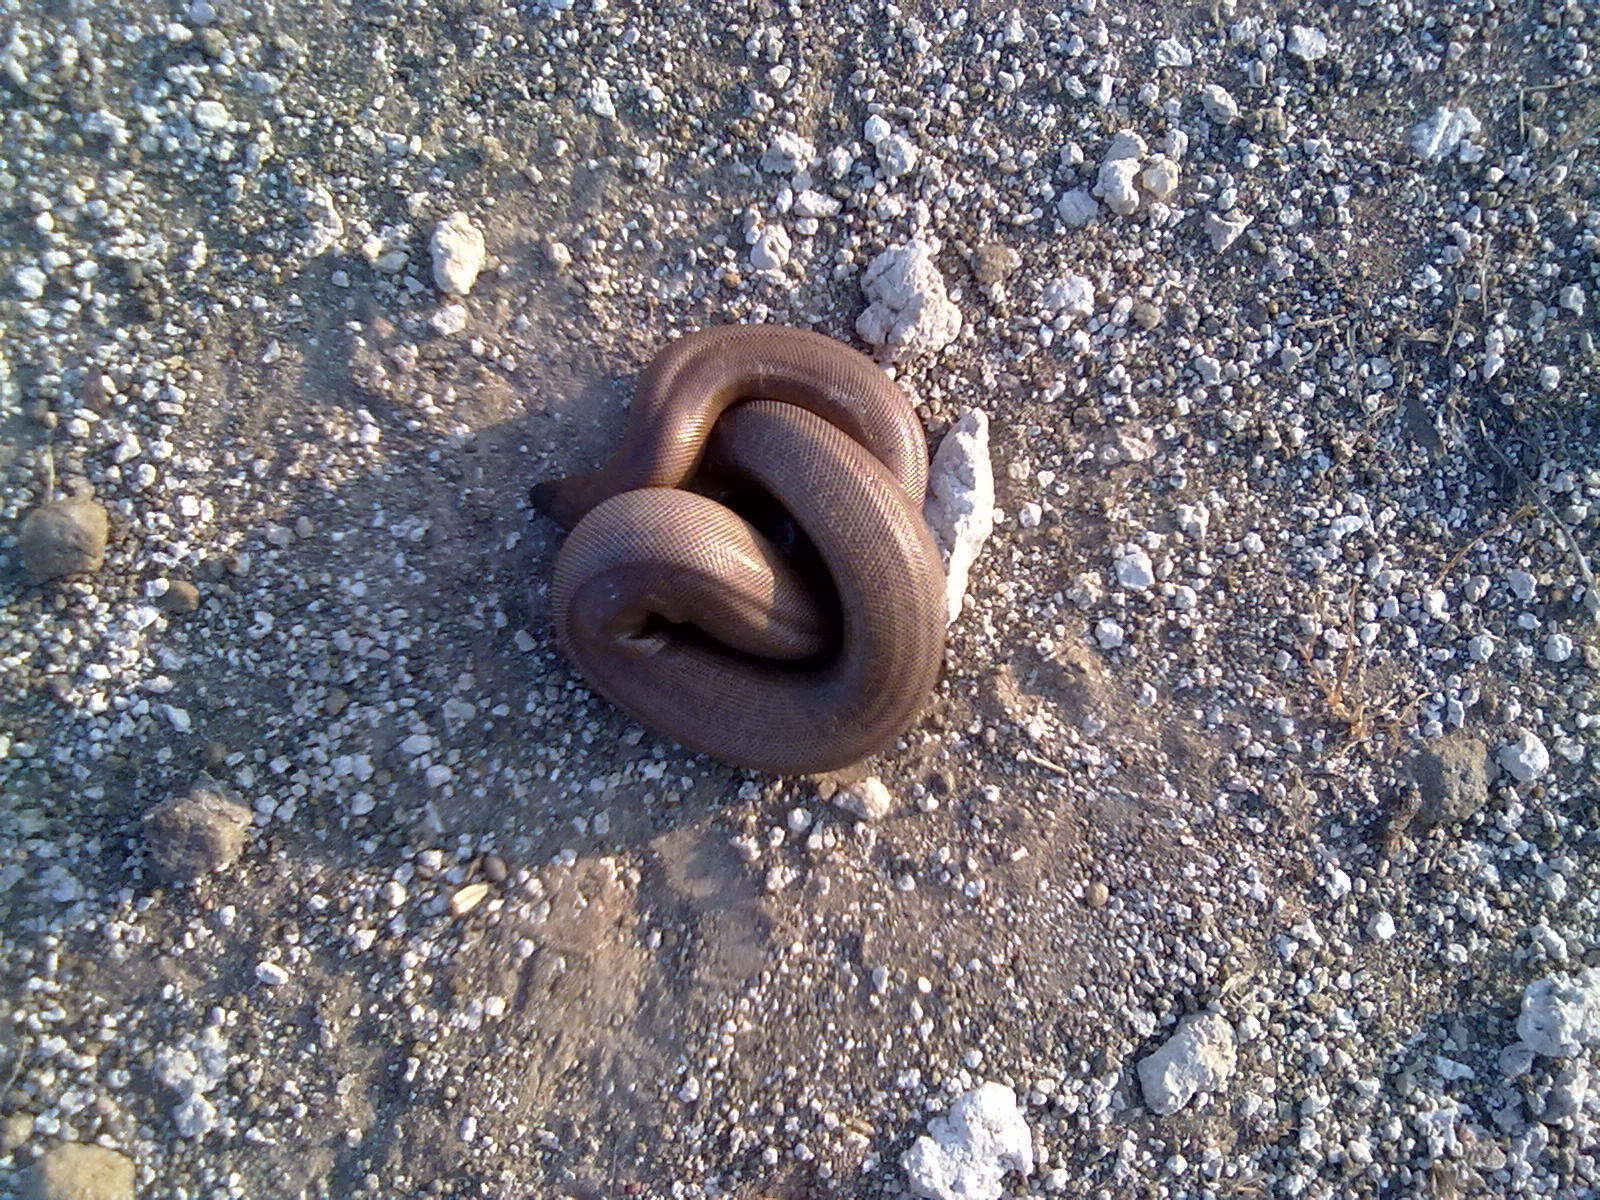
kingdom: Animalia
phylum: Chordata
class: Squamata
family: Boidae
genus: Eryx
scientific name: Eryx johnii
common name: Brown sand boa
